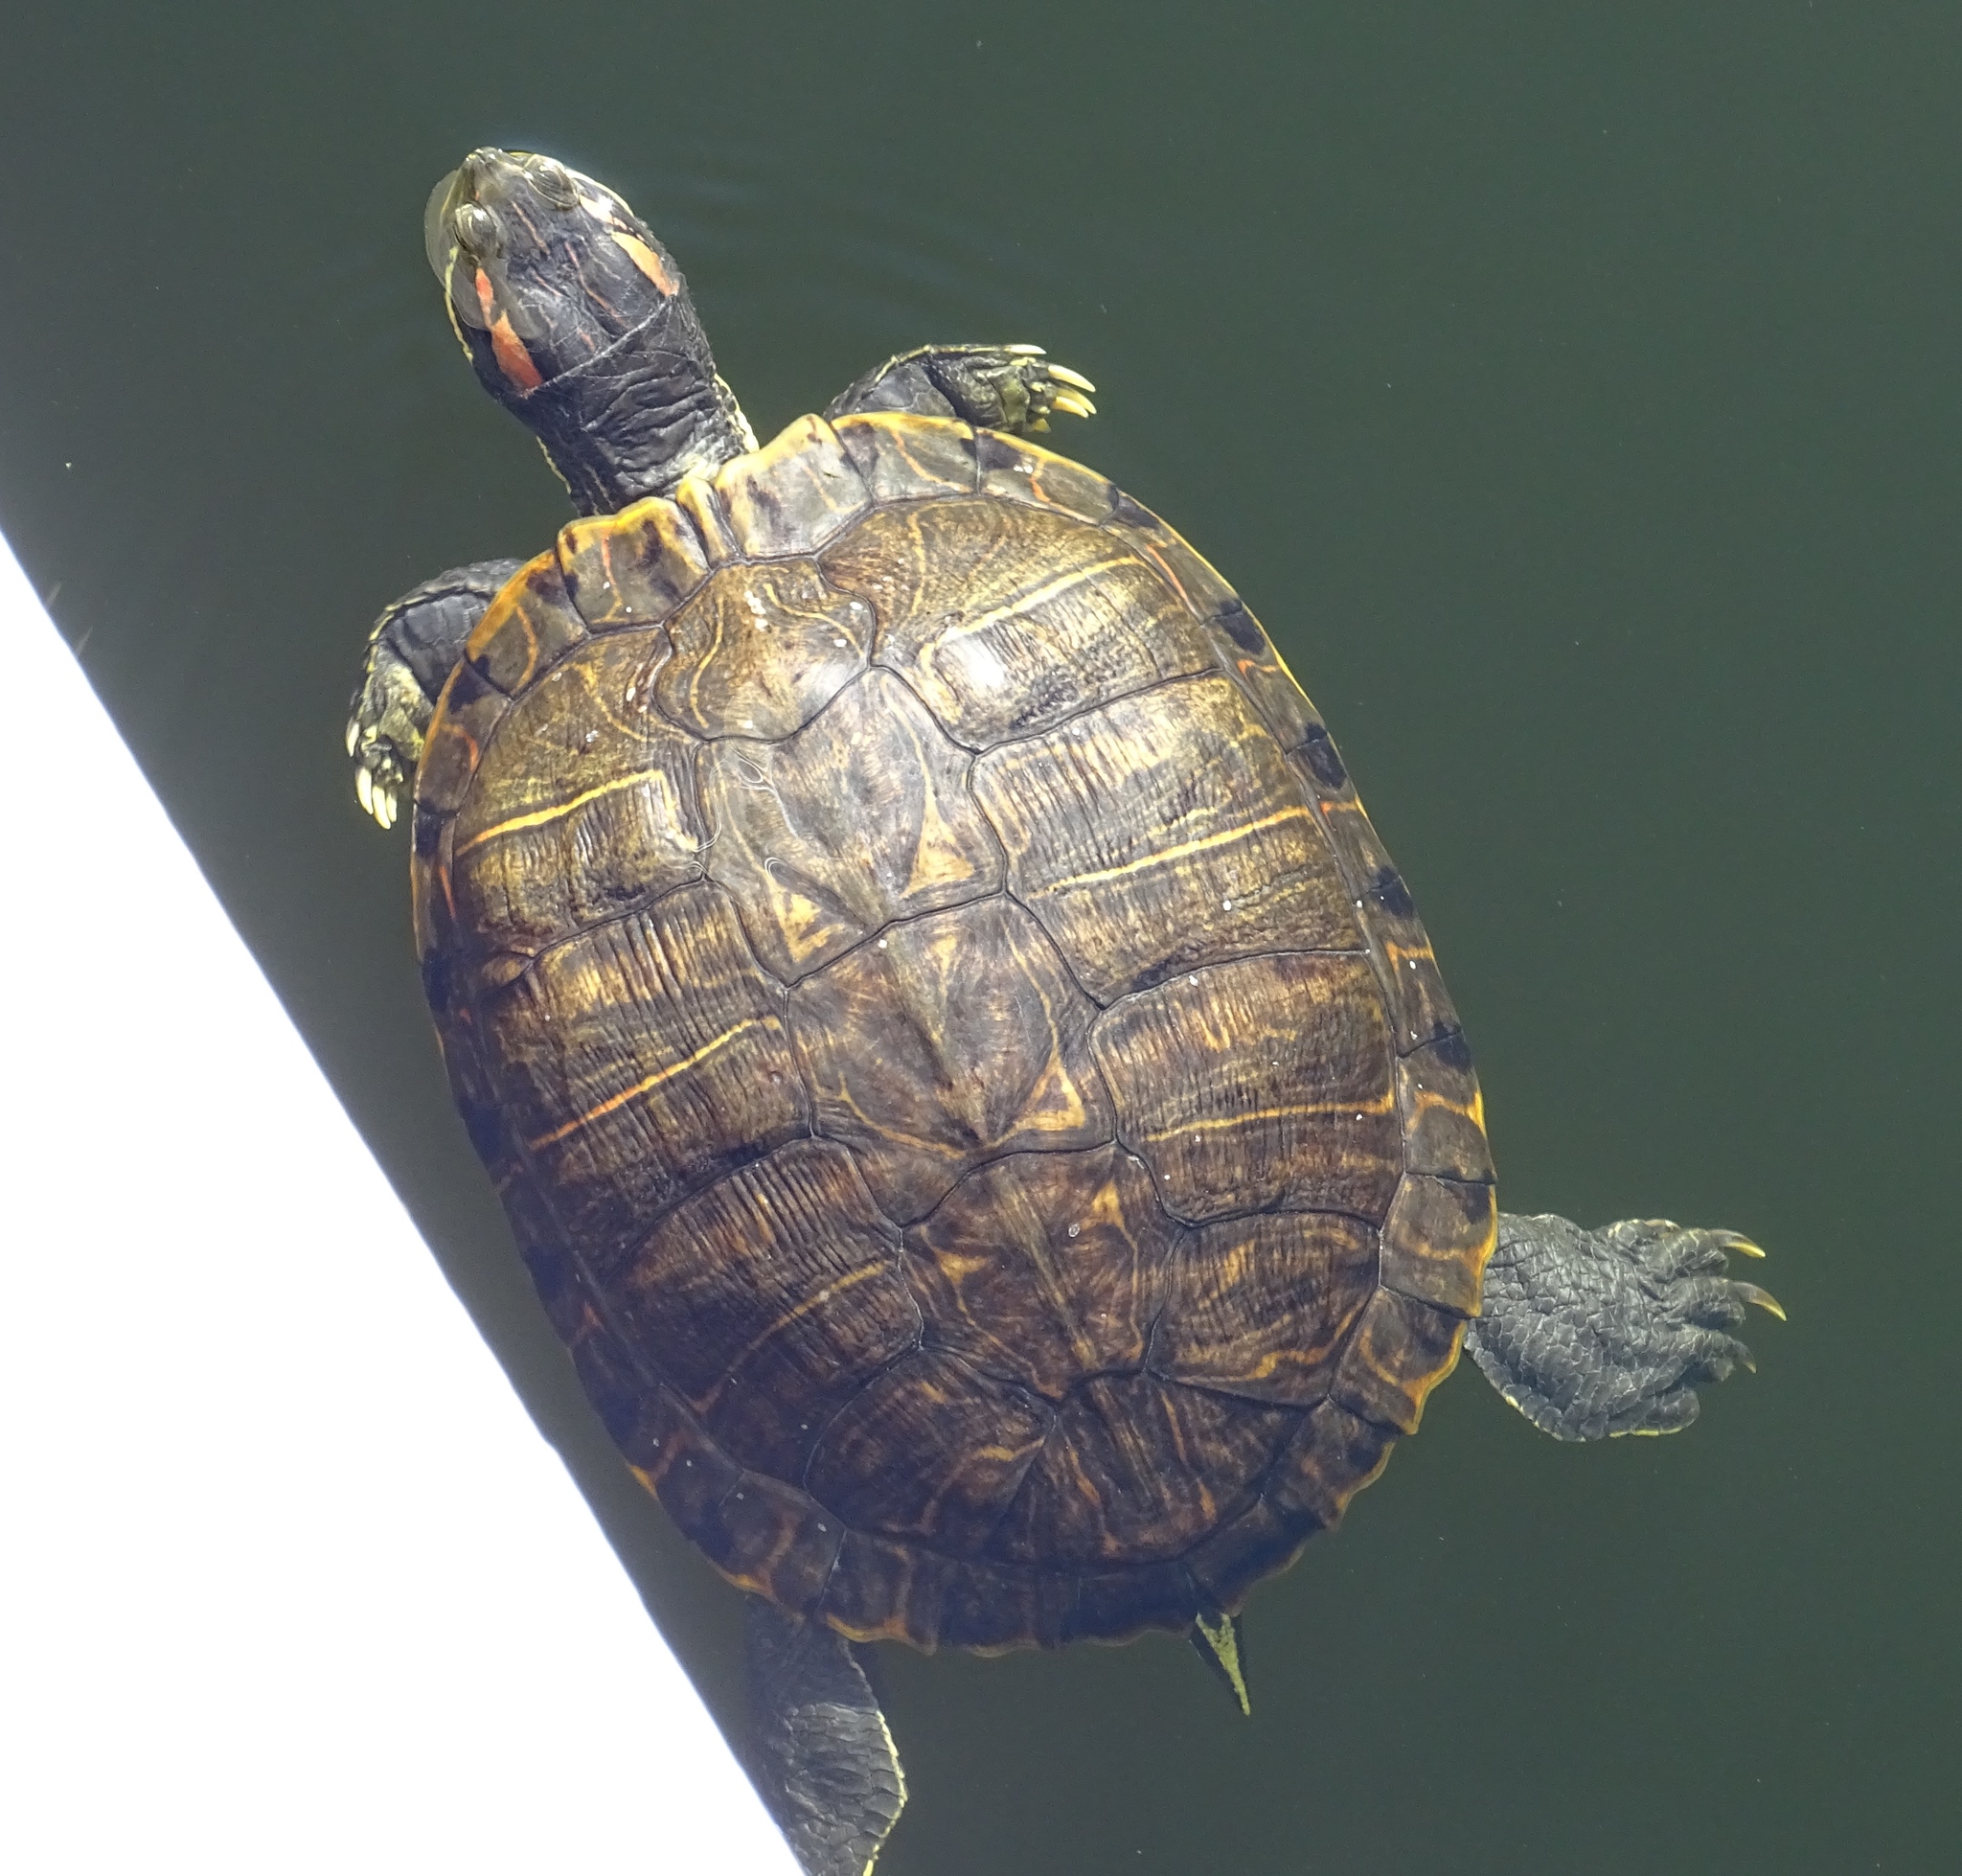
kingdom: Animalia
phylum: Chordata
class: Testudines
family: Emydidae
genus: Trachemys
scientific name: Trachemys scripta
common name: Slider
